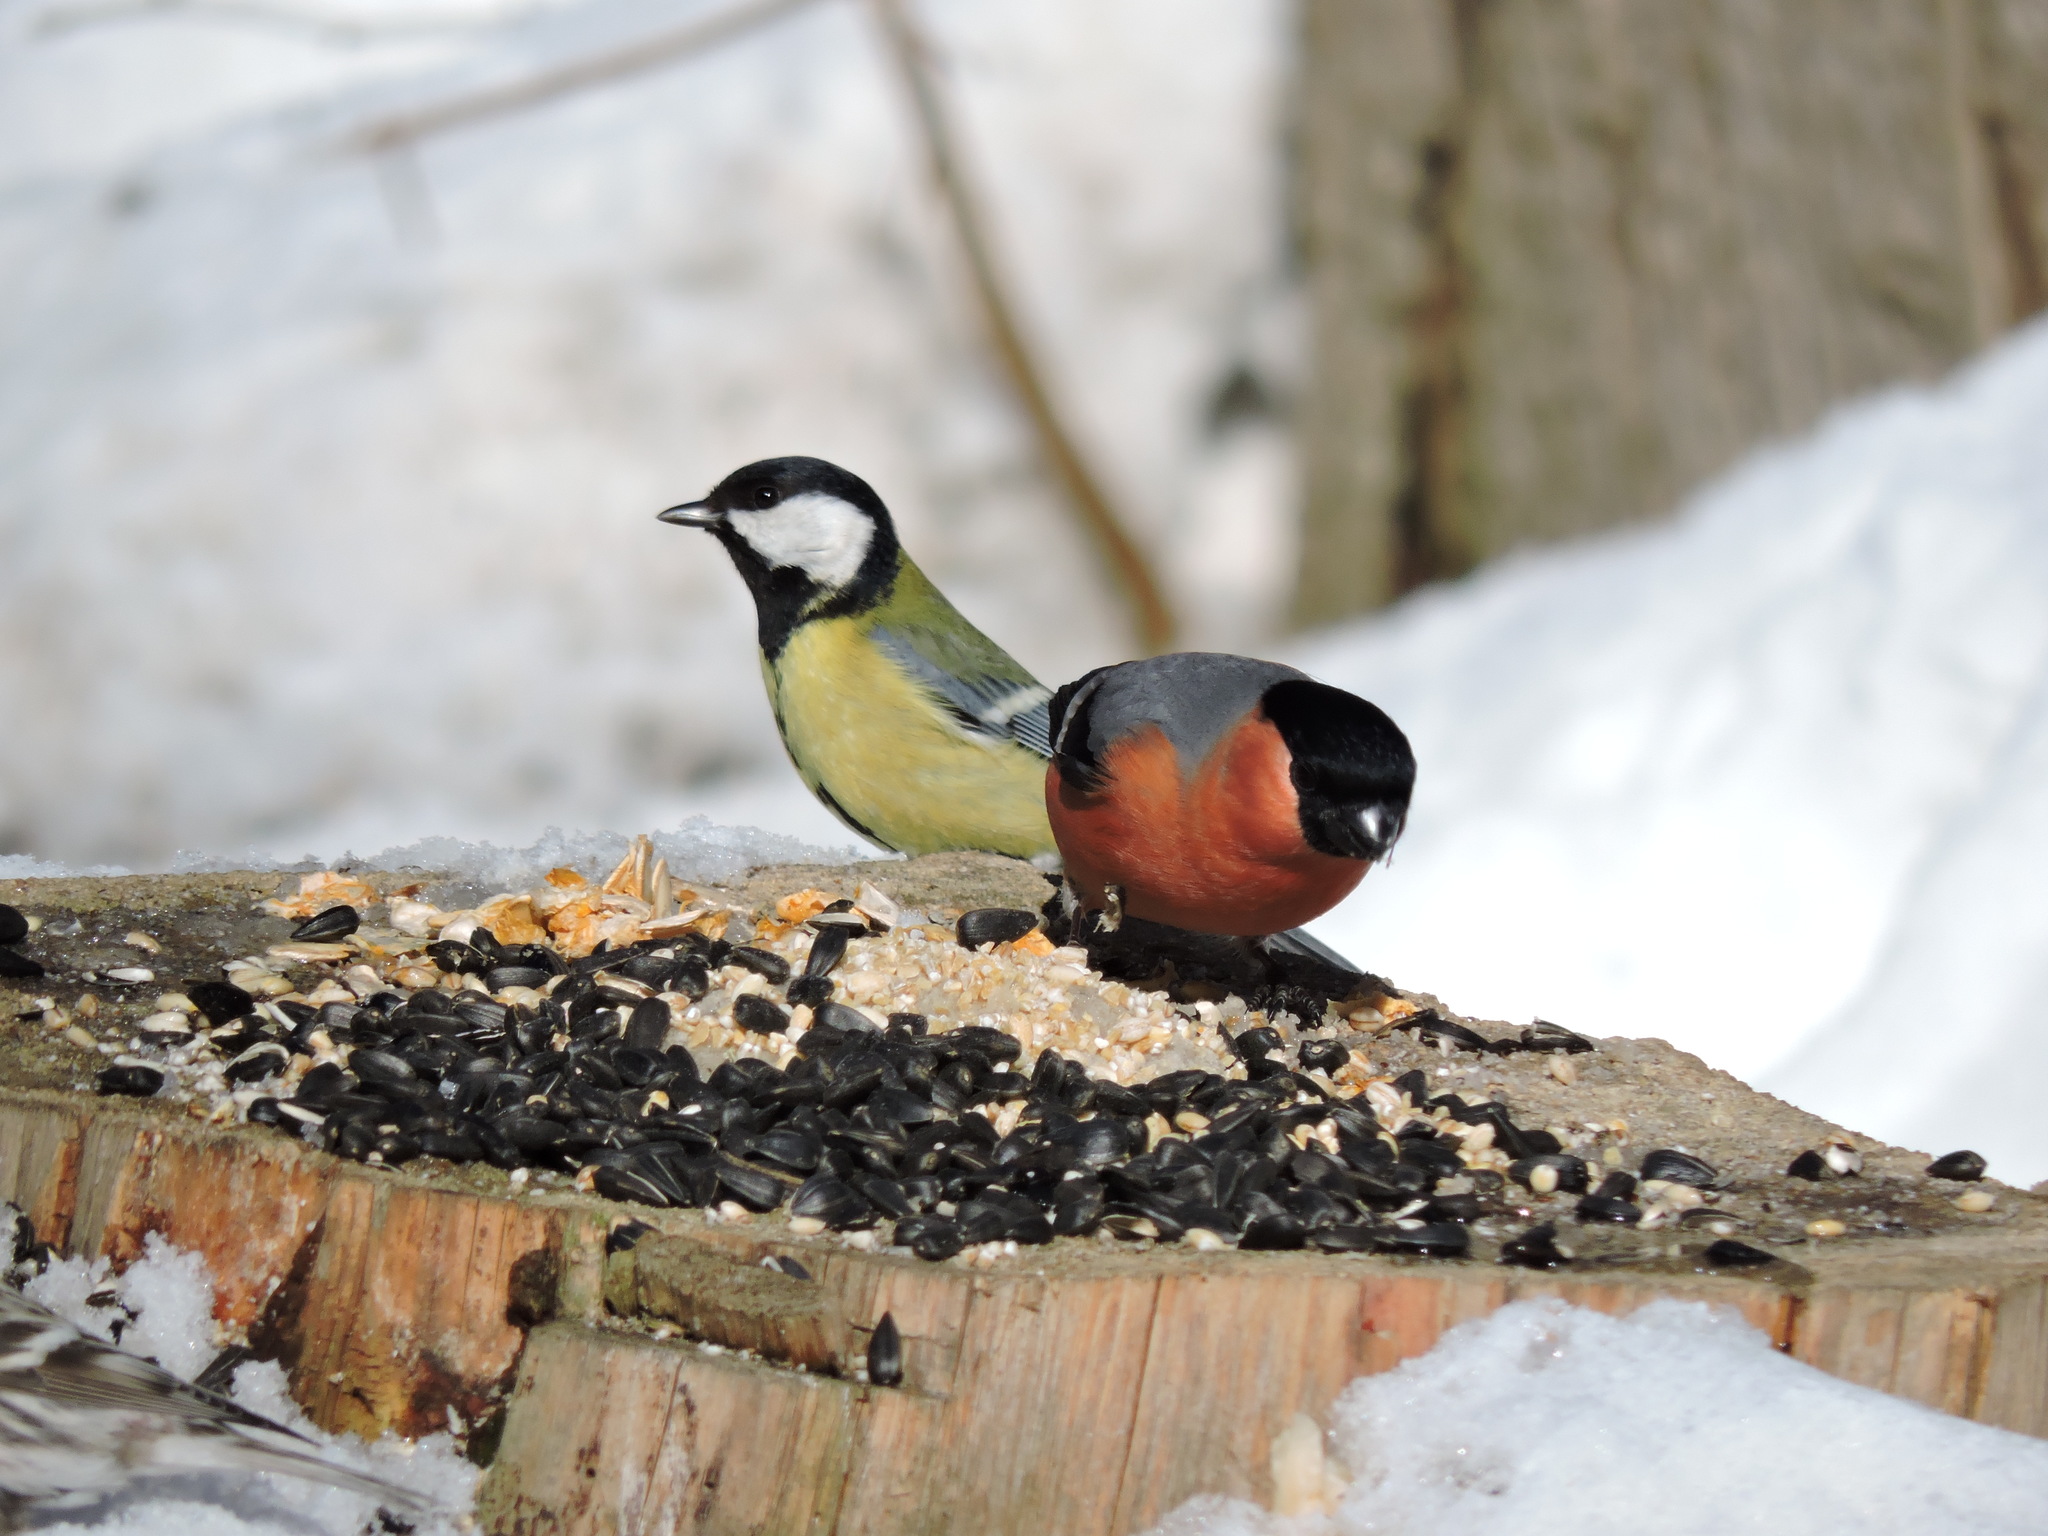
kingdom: Animalia
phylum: Chordata
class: Aves
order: Passeriformes
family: Paridae
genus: Parus
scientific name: Parus major
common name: Great tit
